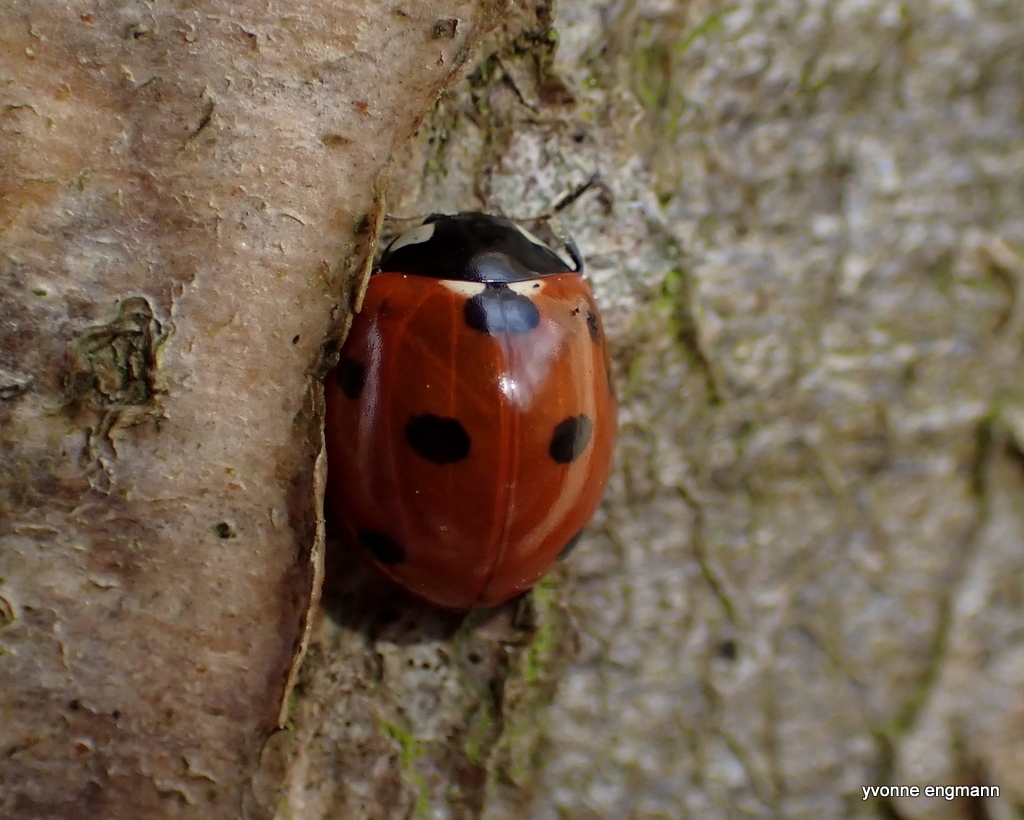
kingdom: Animalia
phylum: Arthropoda
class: Insecta
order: Coleoptera
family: Coccinellidae
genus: Coccinella
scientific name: Coccinella septempunctata
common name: Sevenspotted lady beetle
